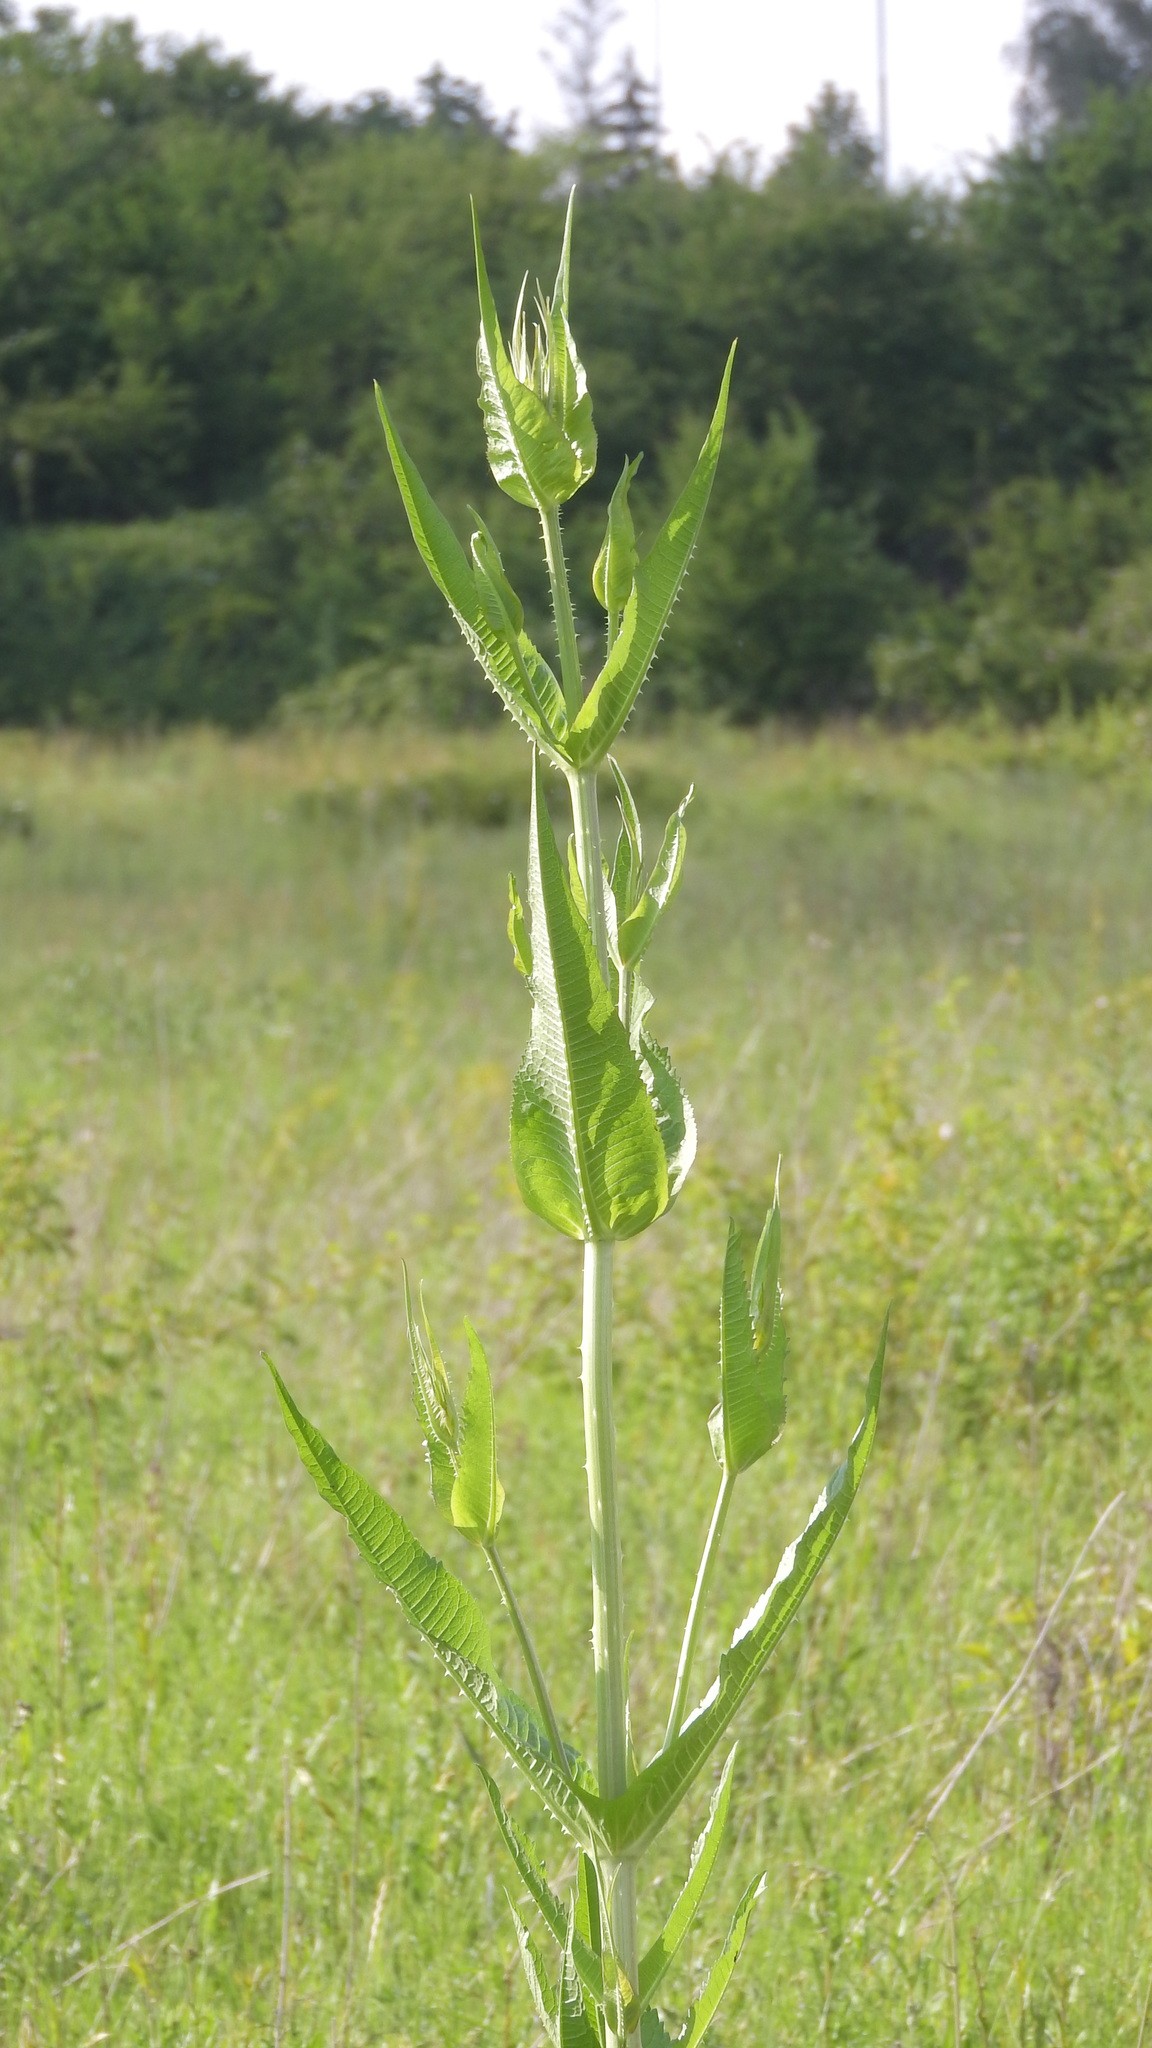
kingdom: Plantae
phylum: Tracheophyta
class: Magnoliopsida
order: Dipsacales
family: Caprifoliaceae
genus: Dipsacus
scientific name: Dipsacus fullonum
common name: Teasel
